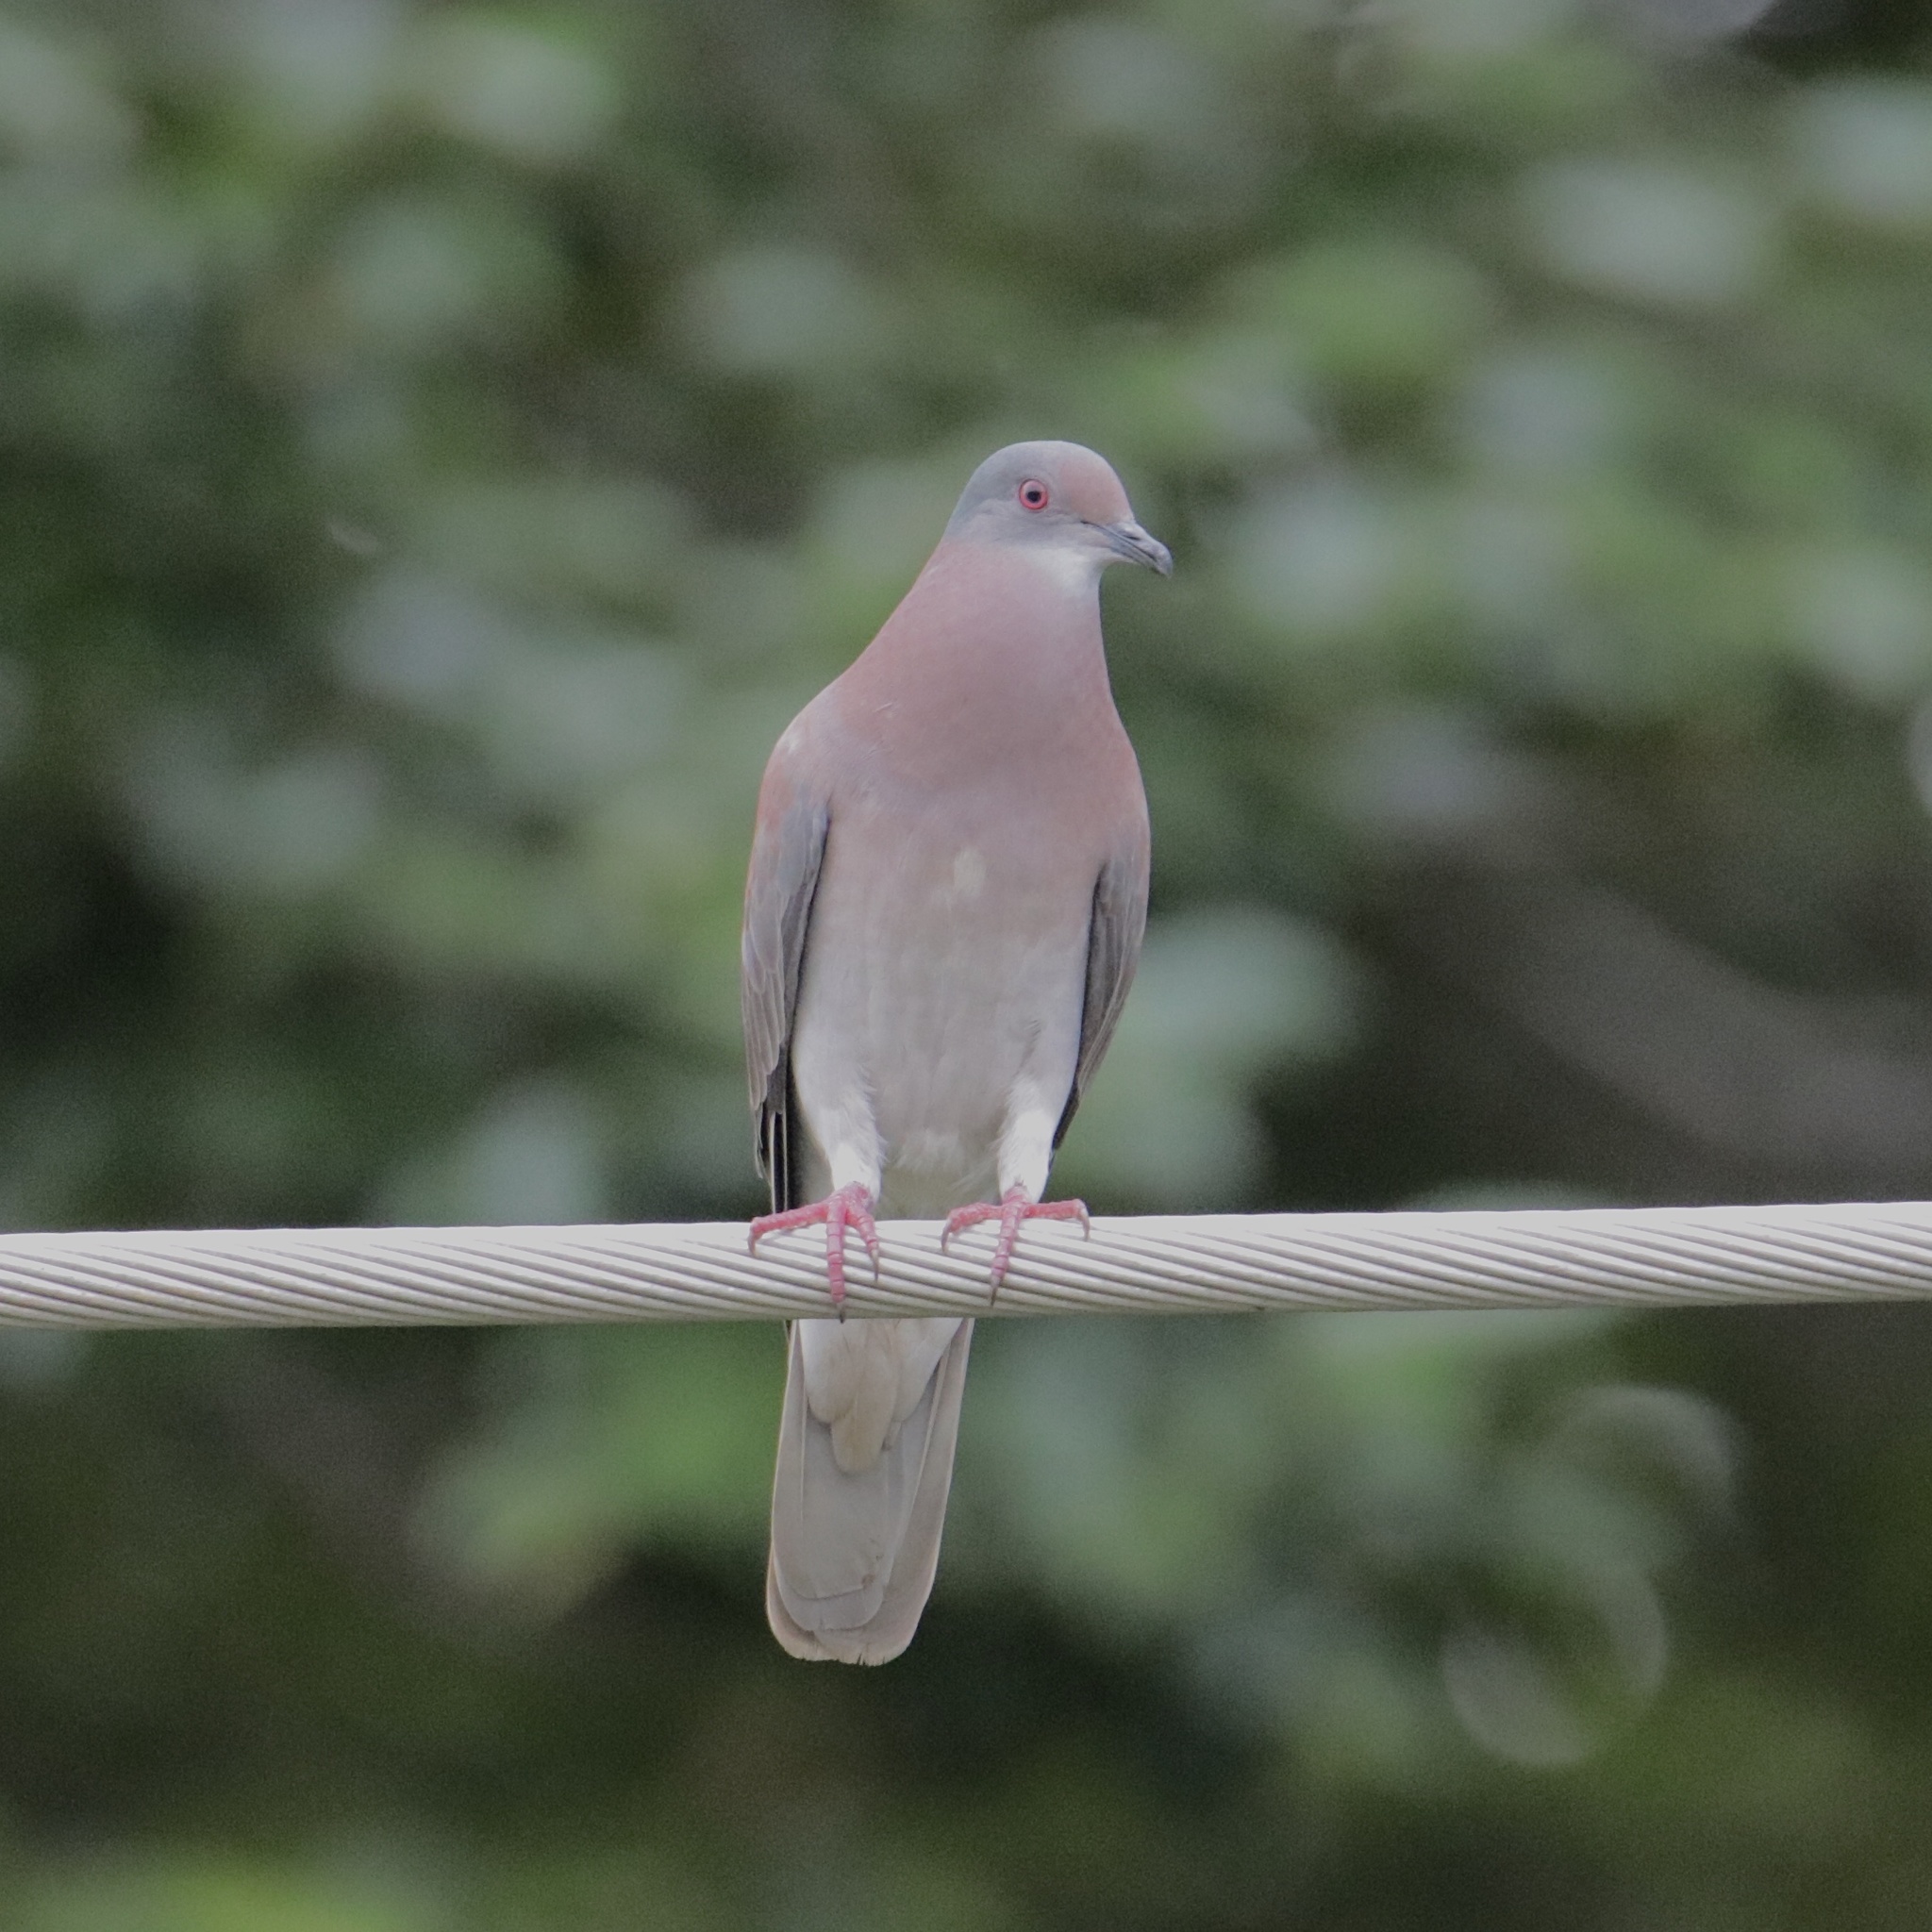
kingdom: Animalia
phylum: Chordata
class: Aves
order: Columbiformes
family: Columbidae
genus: Patagioenas
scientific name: Patagioenas cayennensis
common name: Pale-vented pigeon
